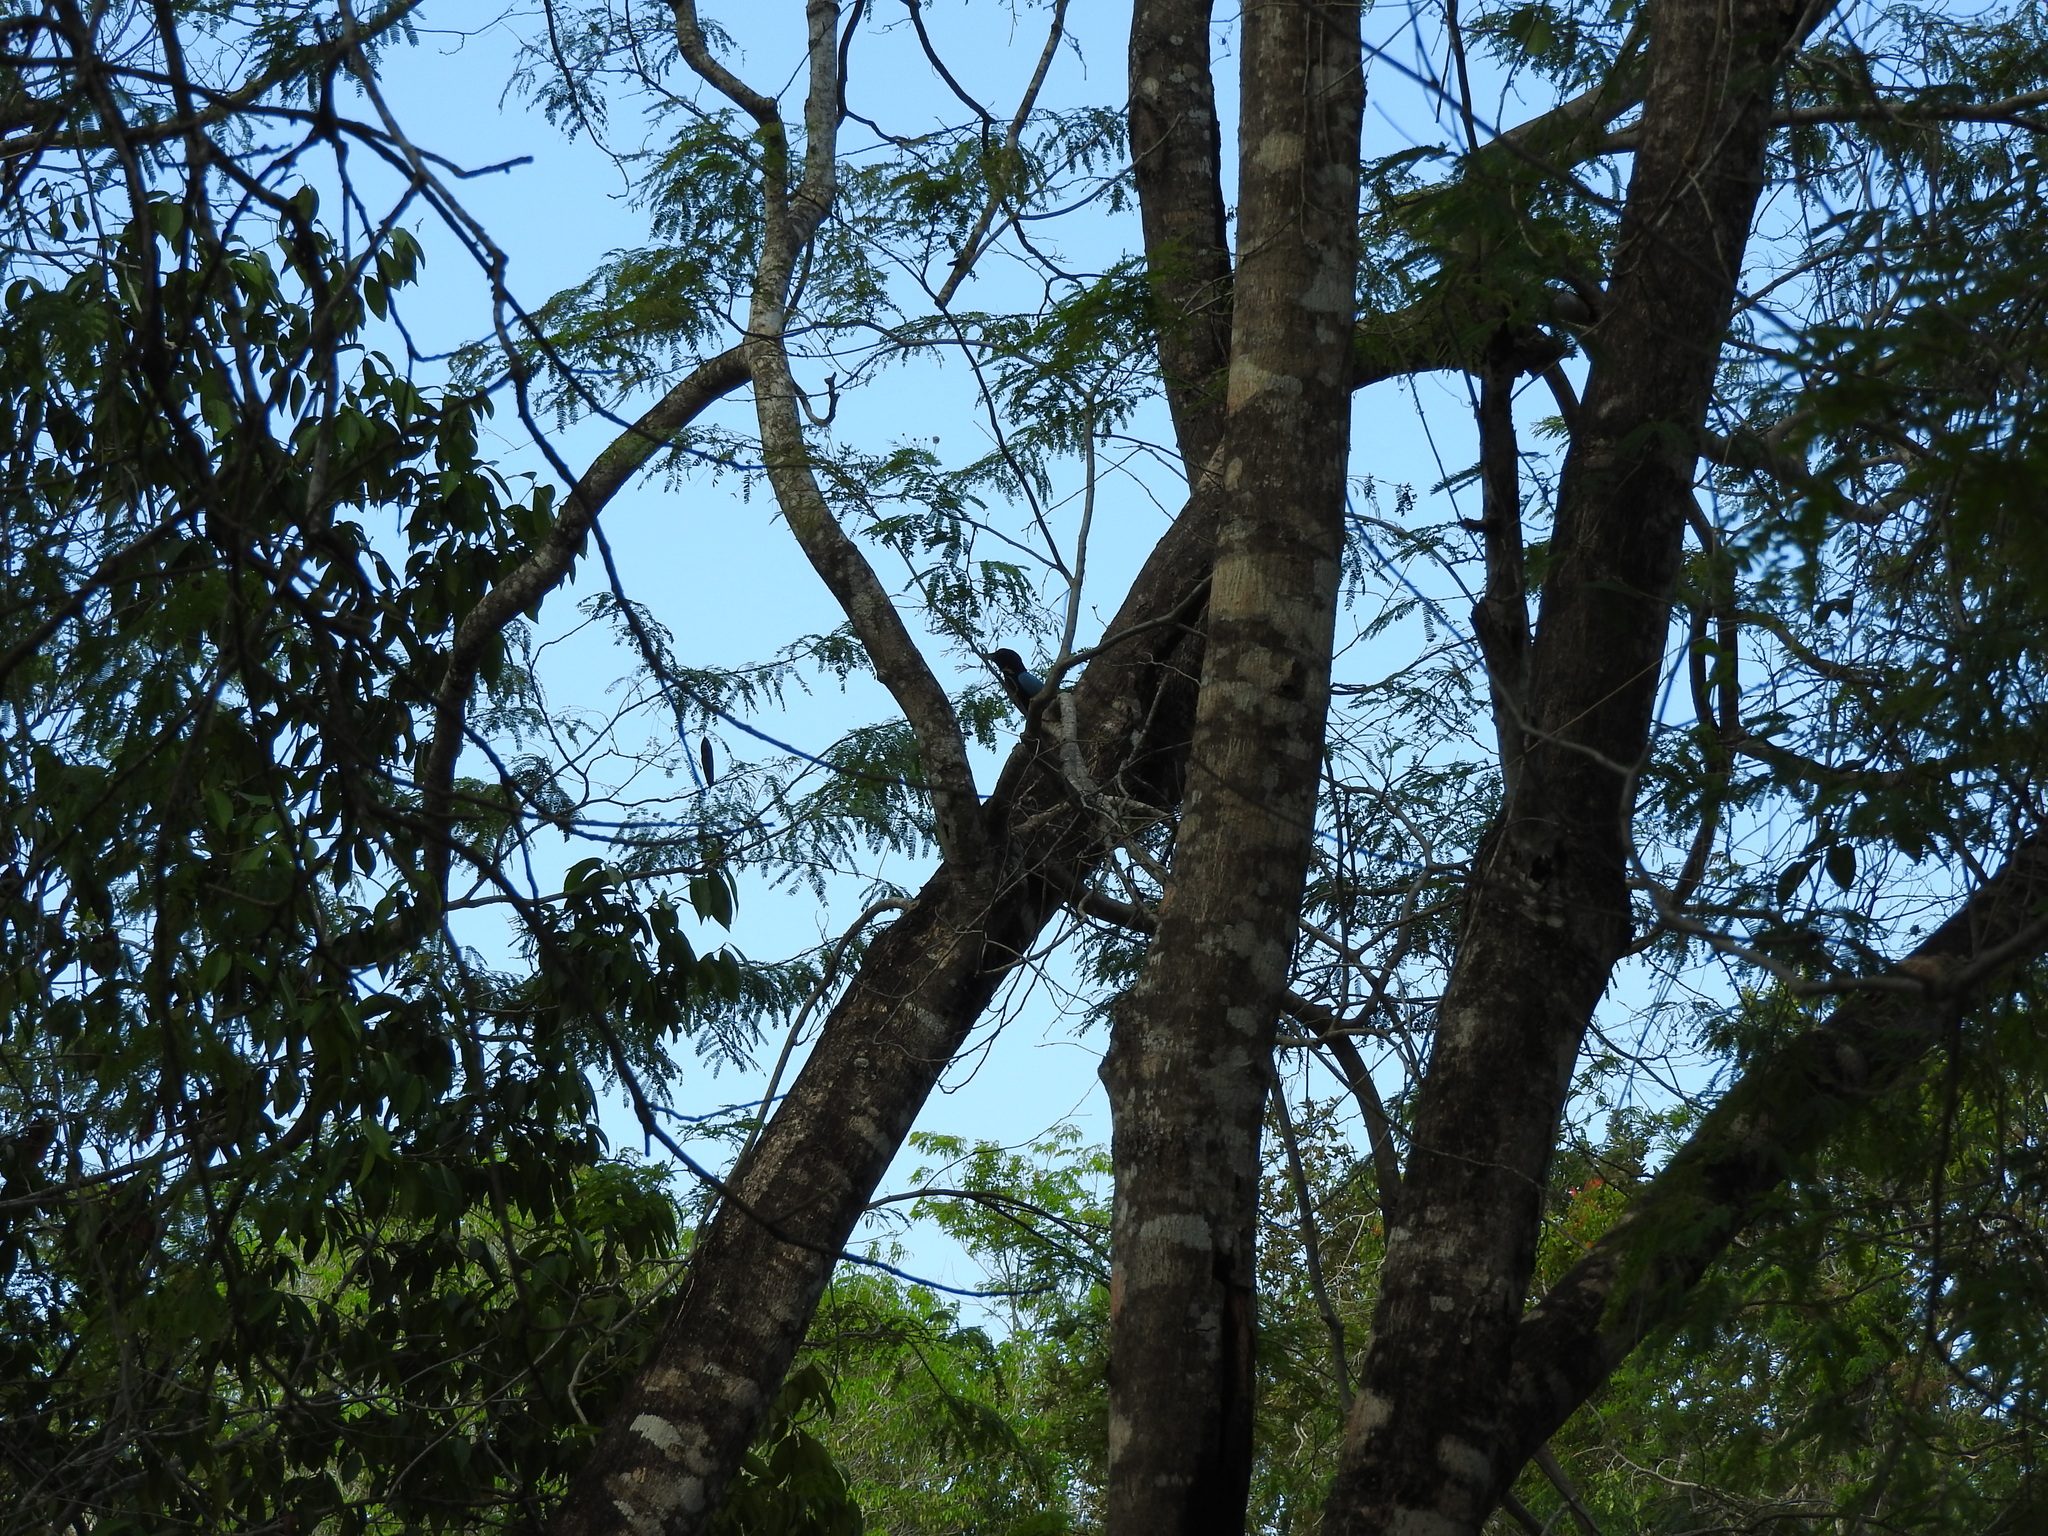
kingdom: Animalia
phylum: Chordata
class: Aves
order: Passeriformes
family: Corvidae
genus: Cyanocorax
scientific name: Cyanocorax yucatanicus
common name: Yucatan jay
